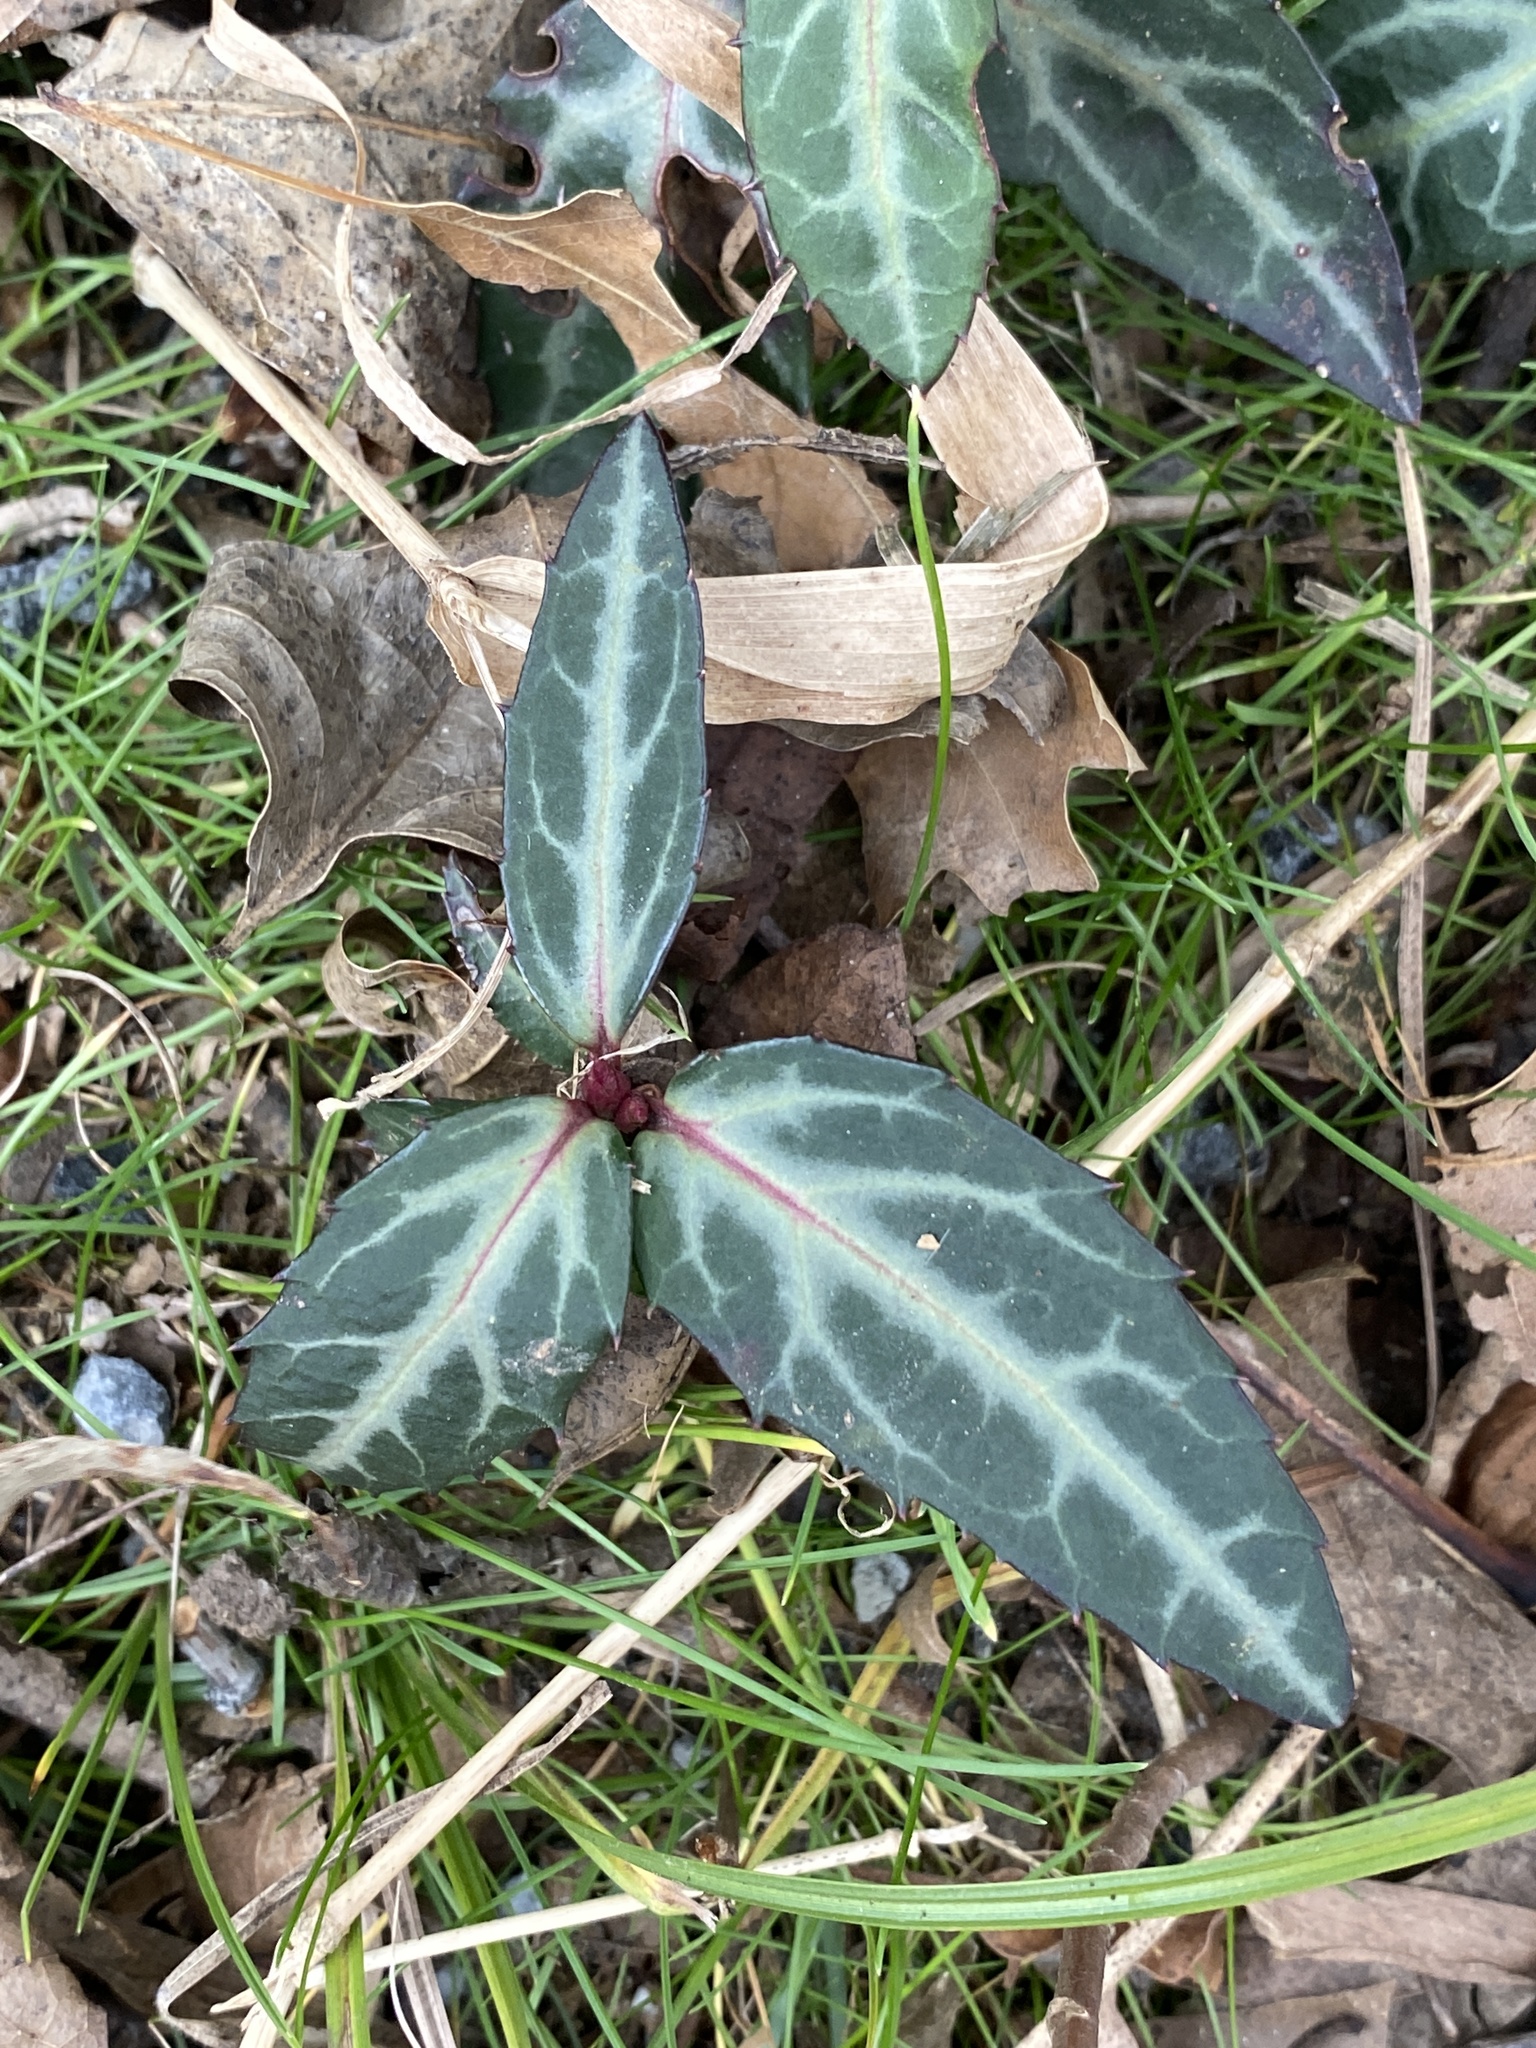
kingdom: Plantae
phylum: Tracheophyta
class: Magnoliopsida
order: Ericales
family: Ericaceae
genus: Chimaphila
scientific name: Chimaphila maculata
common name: Spotted pipsissewa
